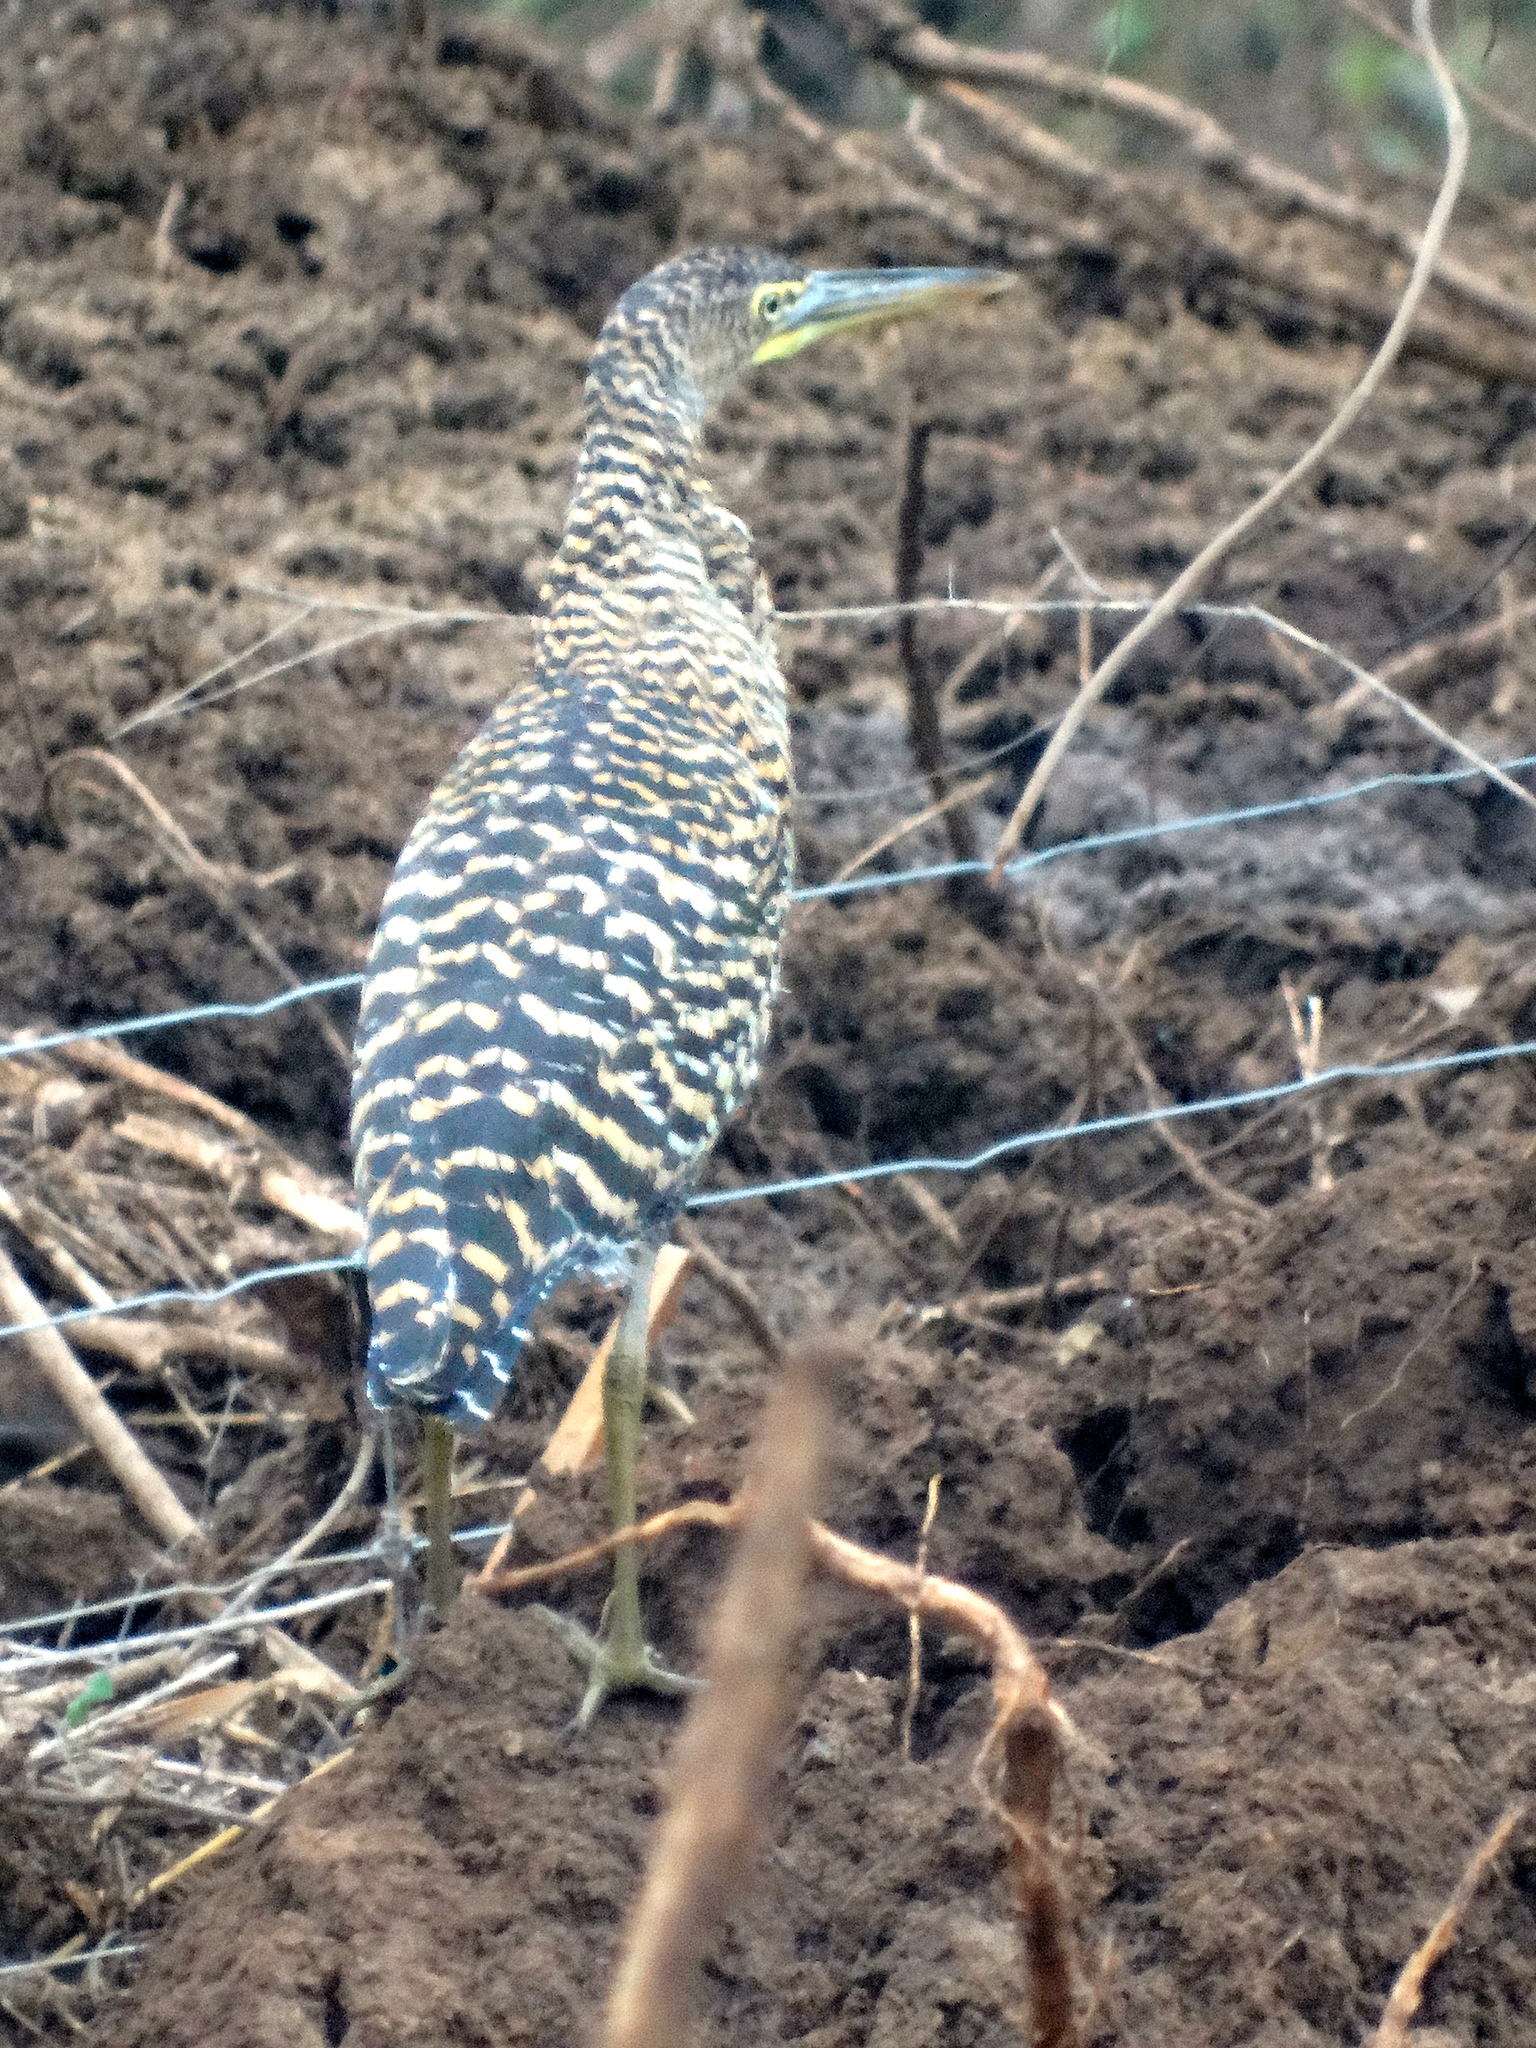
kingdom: Animalia
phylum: Chordata
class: Aves
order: Pelecaniformes
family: Ardeidae
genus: Tigrisoma
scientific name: Tigrisoma mexicanum
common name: Bare-throated tiger-heron
